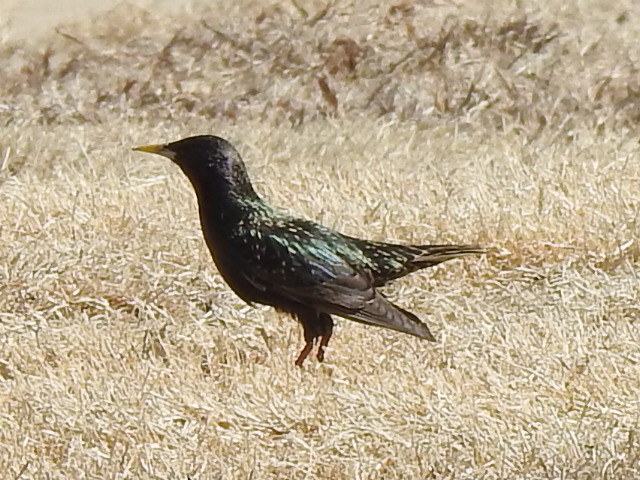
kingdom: Animalia
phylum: Chordata
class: Aves
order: Passeriformes
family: Sturnidae
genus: Sturnus
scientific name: Sturnus vulgaris
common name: Common starling
